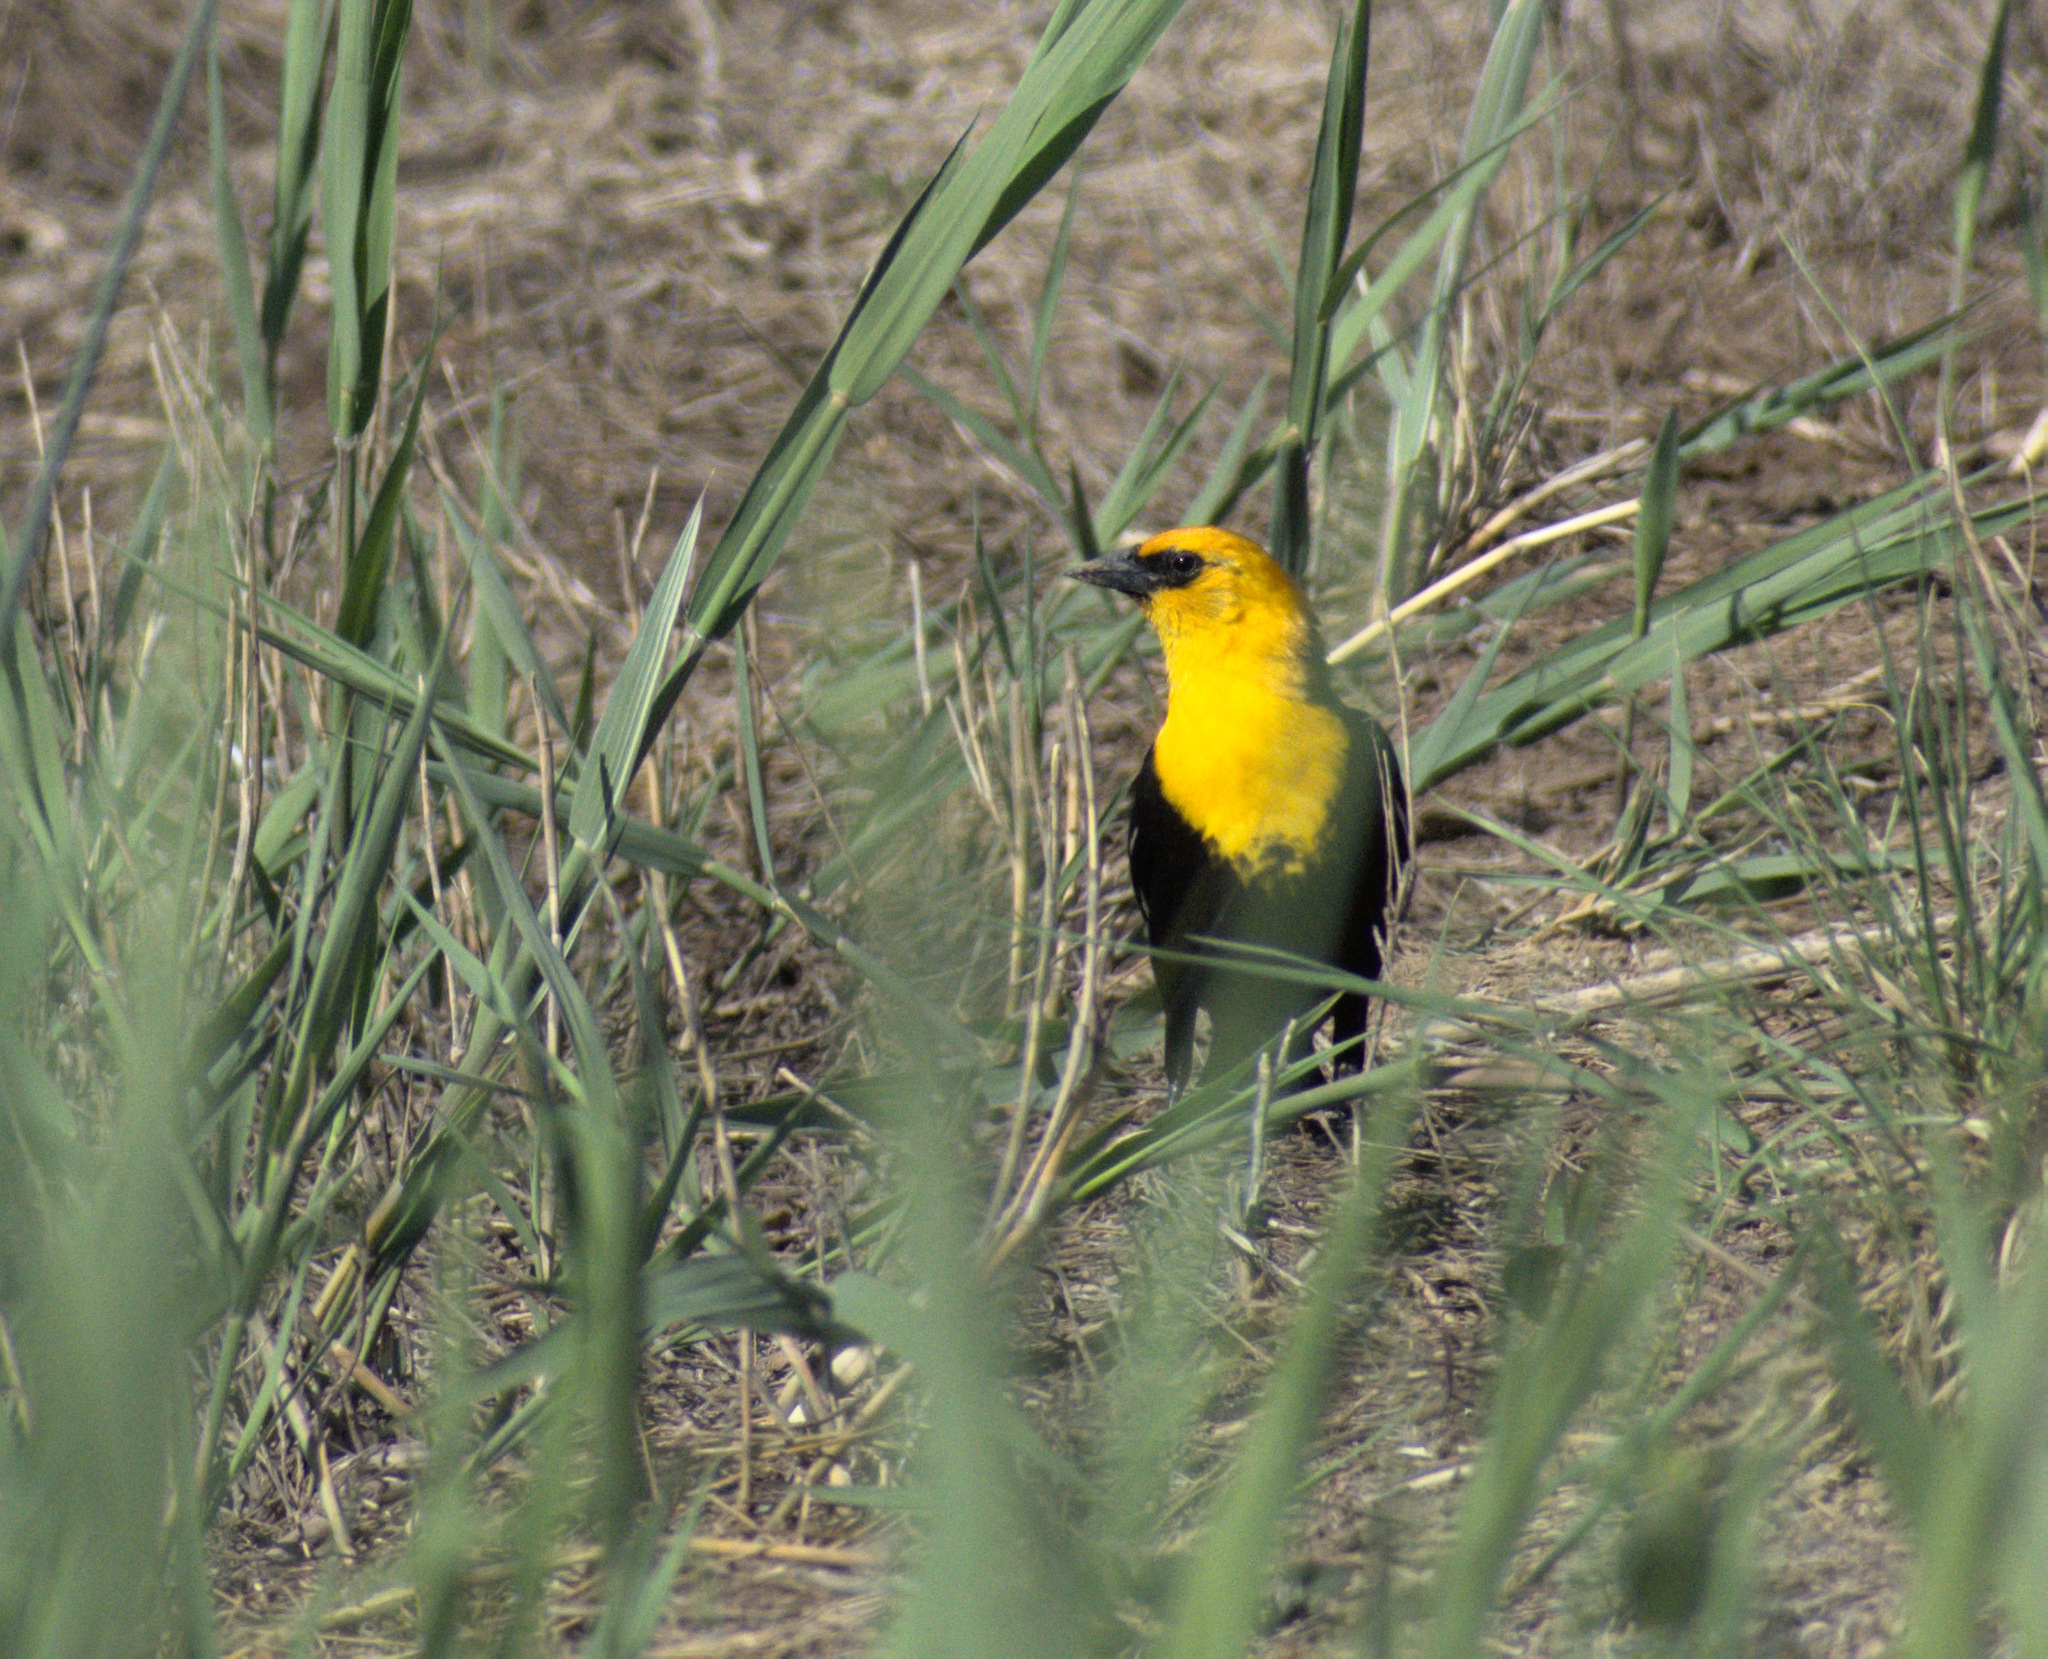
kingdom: Animalia
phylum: Chordata
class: Aves
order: Passeriformes
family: Icteridae
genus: Xanthocephalus
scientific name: Xanthocephalus xanthocephalus
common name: Yellow-headed blackbird
